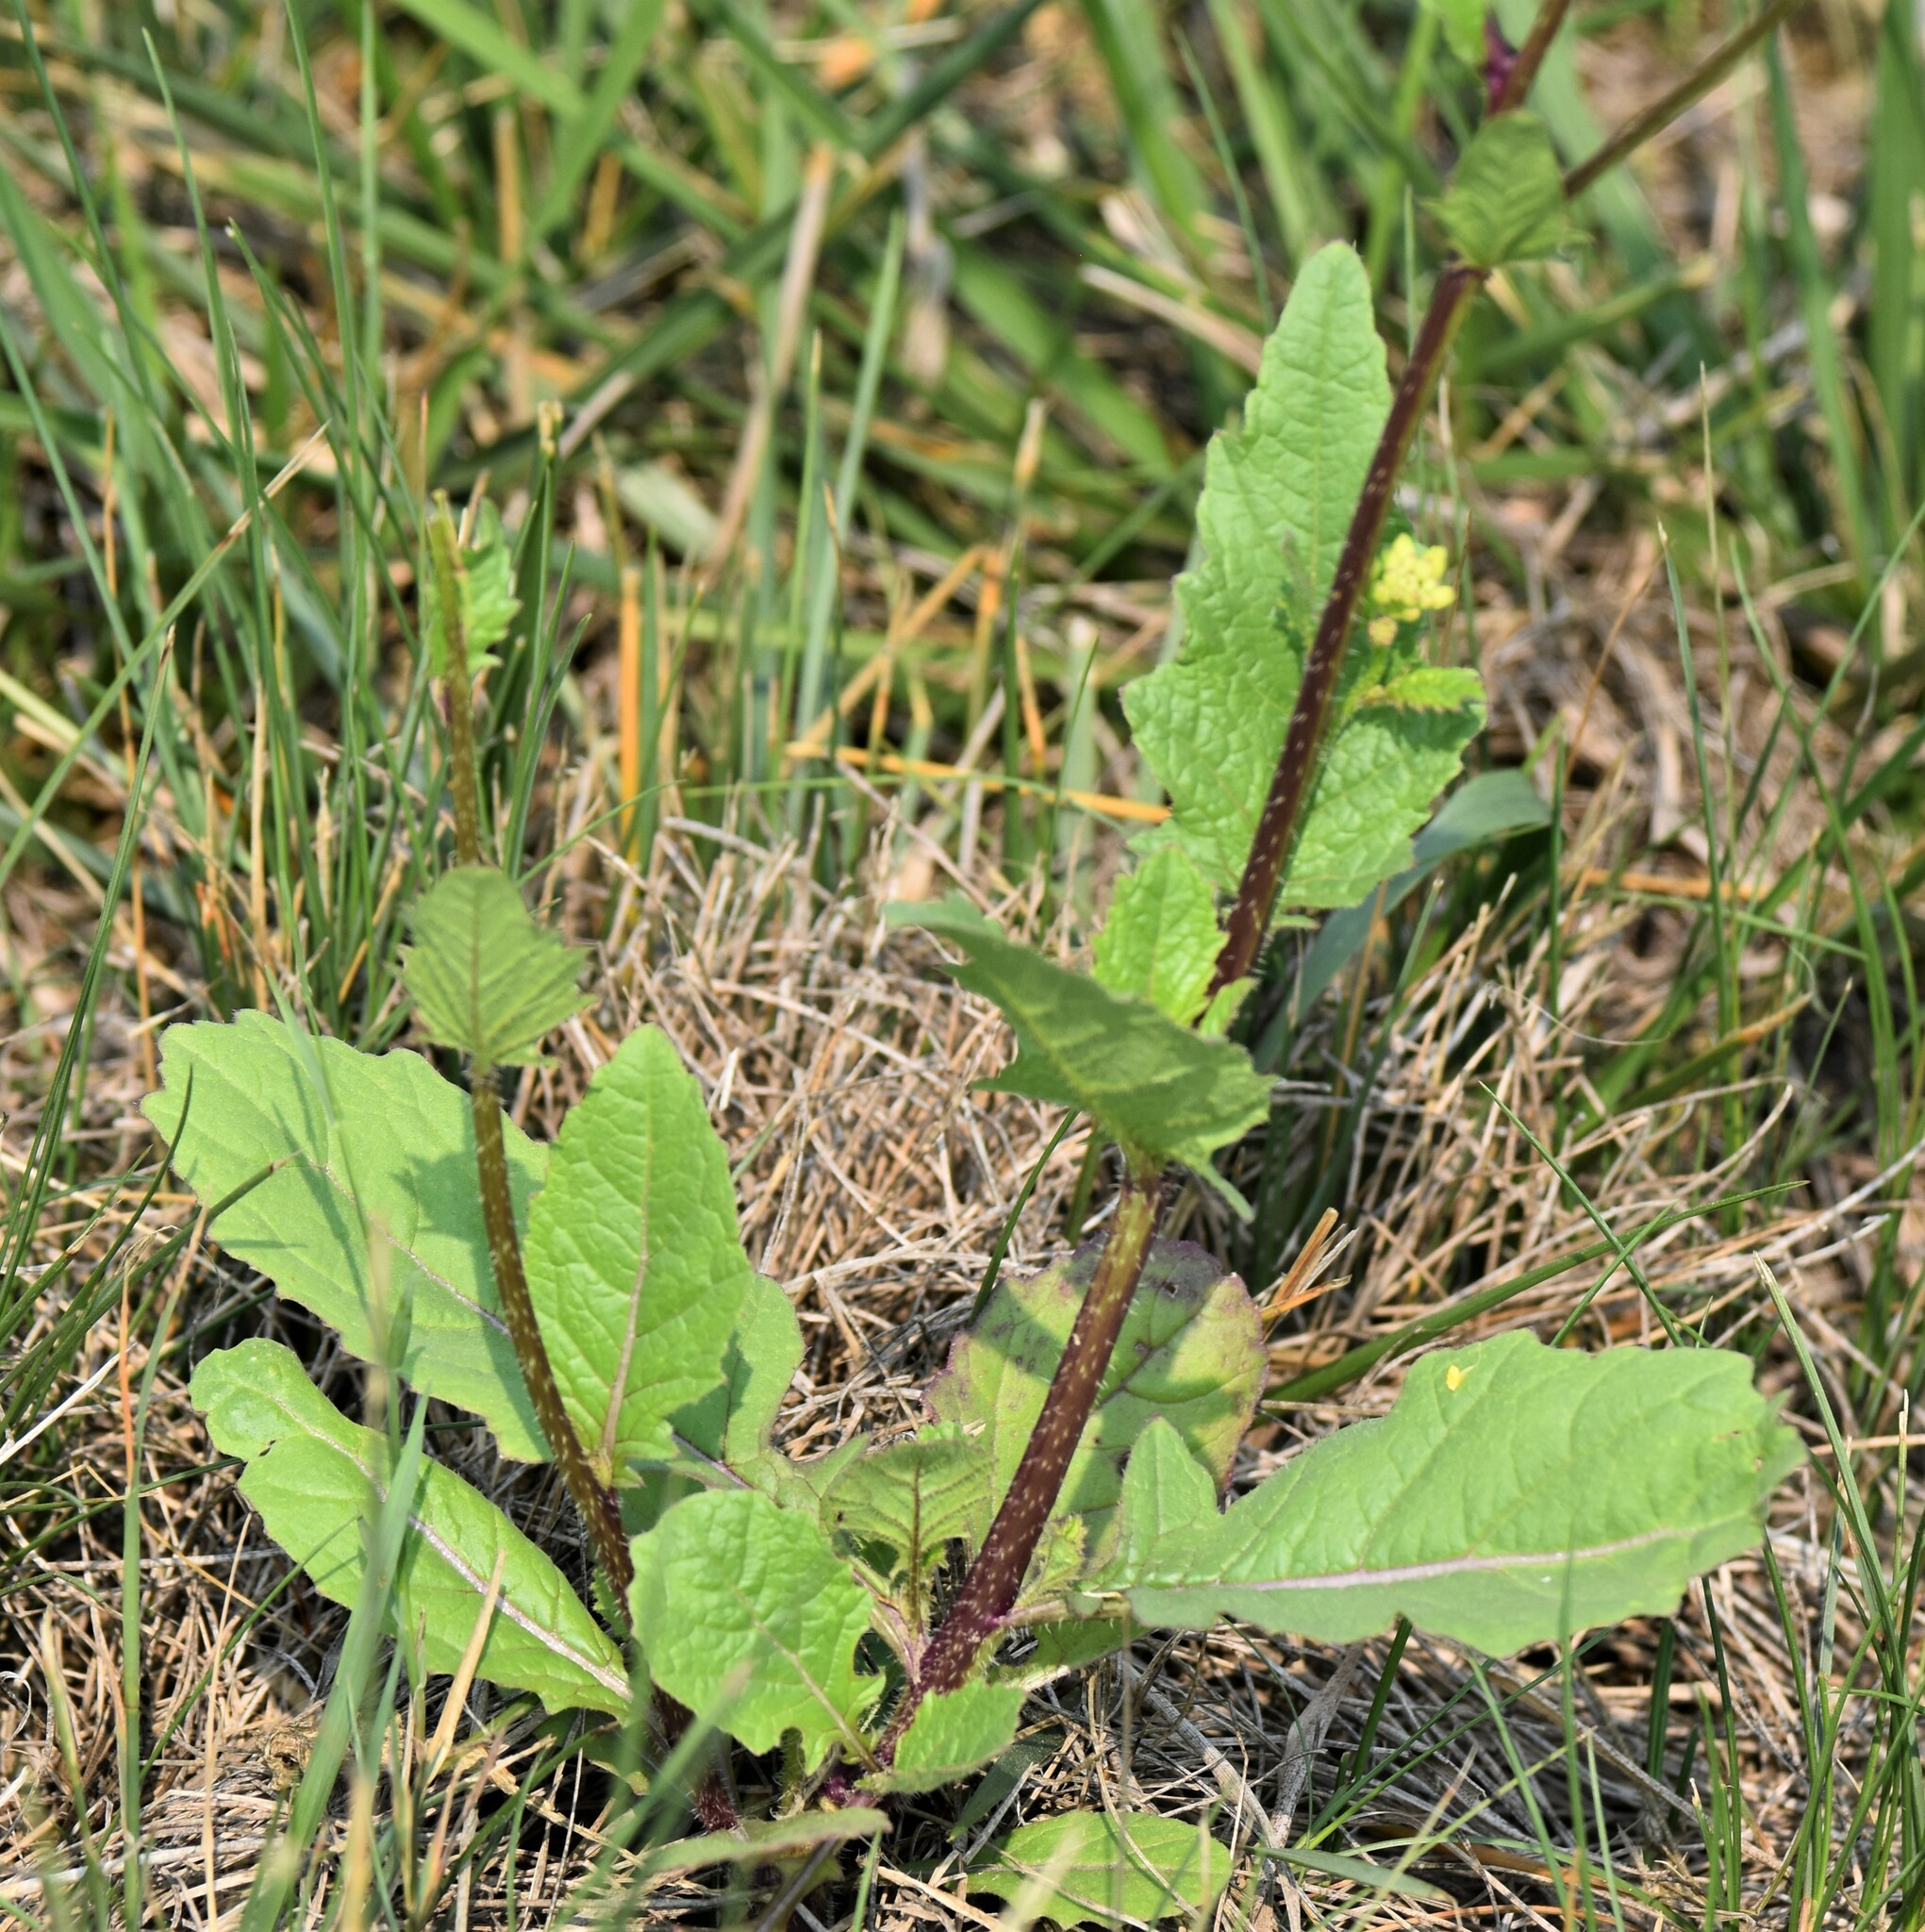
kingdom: Plantae
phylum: Tracheophyta
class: Magnoliopsida
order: Brassicales
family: Brassicaceae
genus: Sinapis
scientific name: Sinapis arvensis
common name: Charlock
